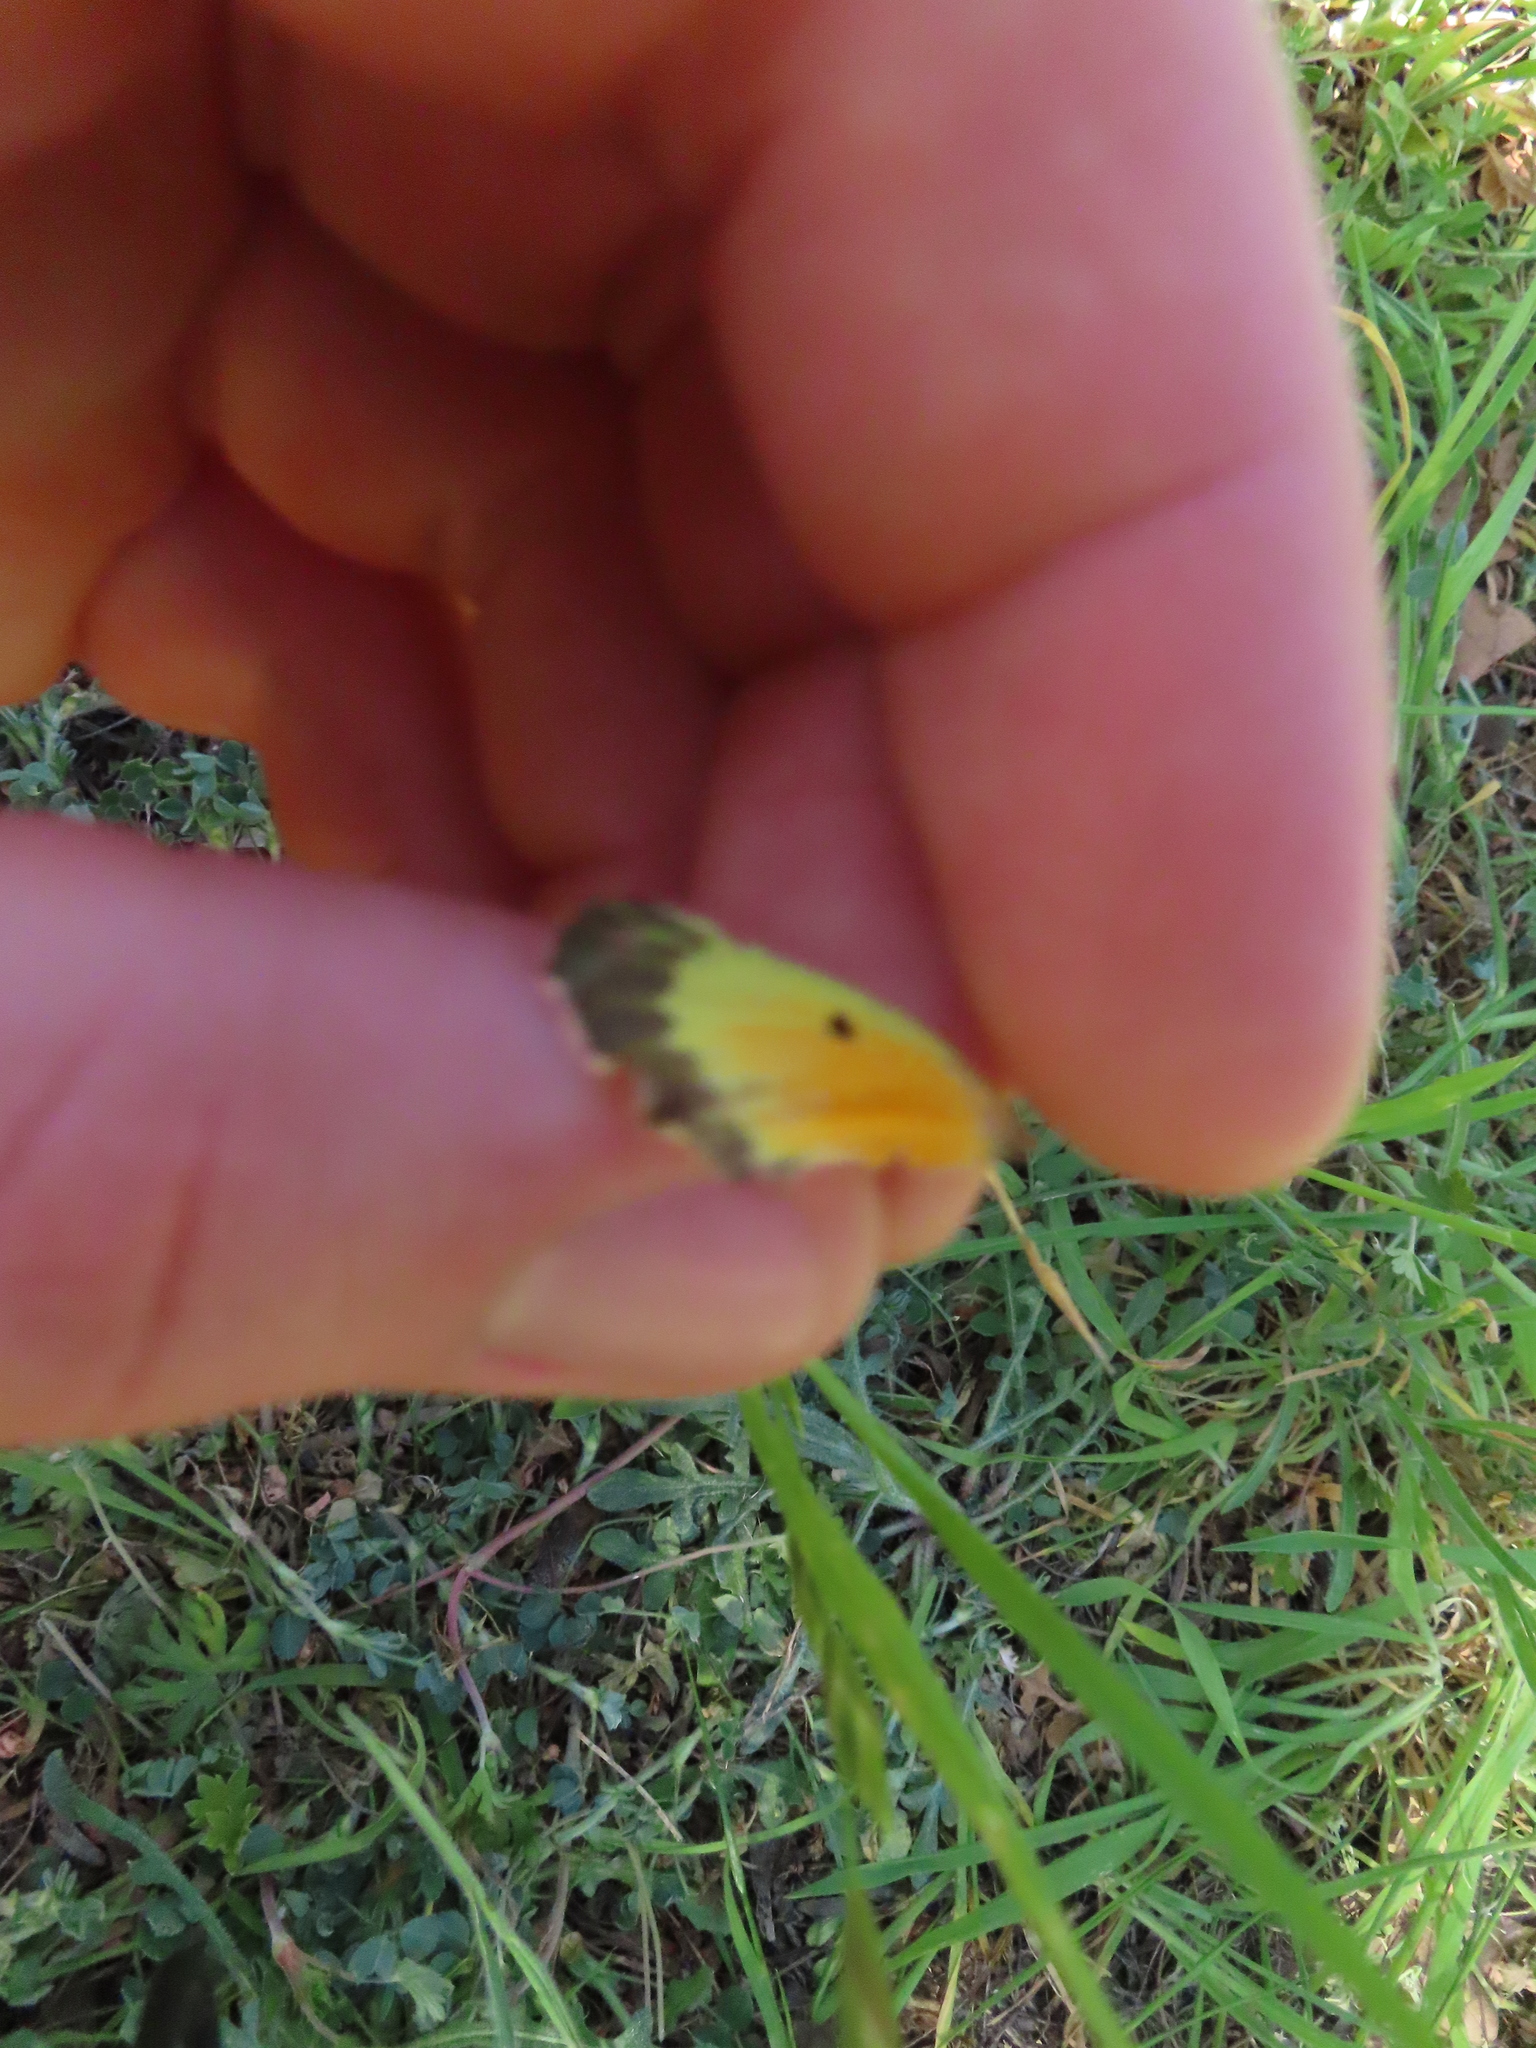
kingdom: Animalia
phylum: Arthropoda
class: Insecta
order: Lepidoptera
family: Pieridae
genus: Colias
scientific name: Colias eurytheme
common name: Alfalfa butterfly
